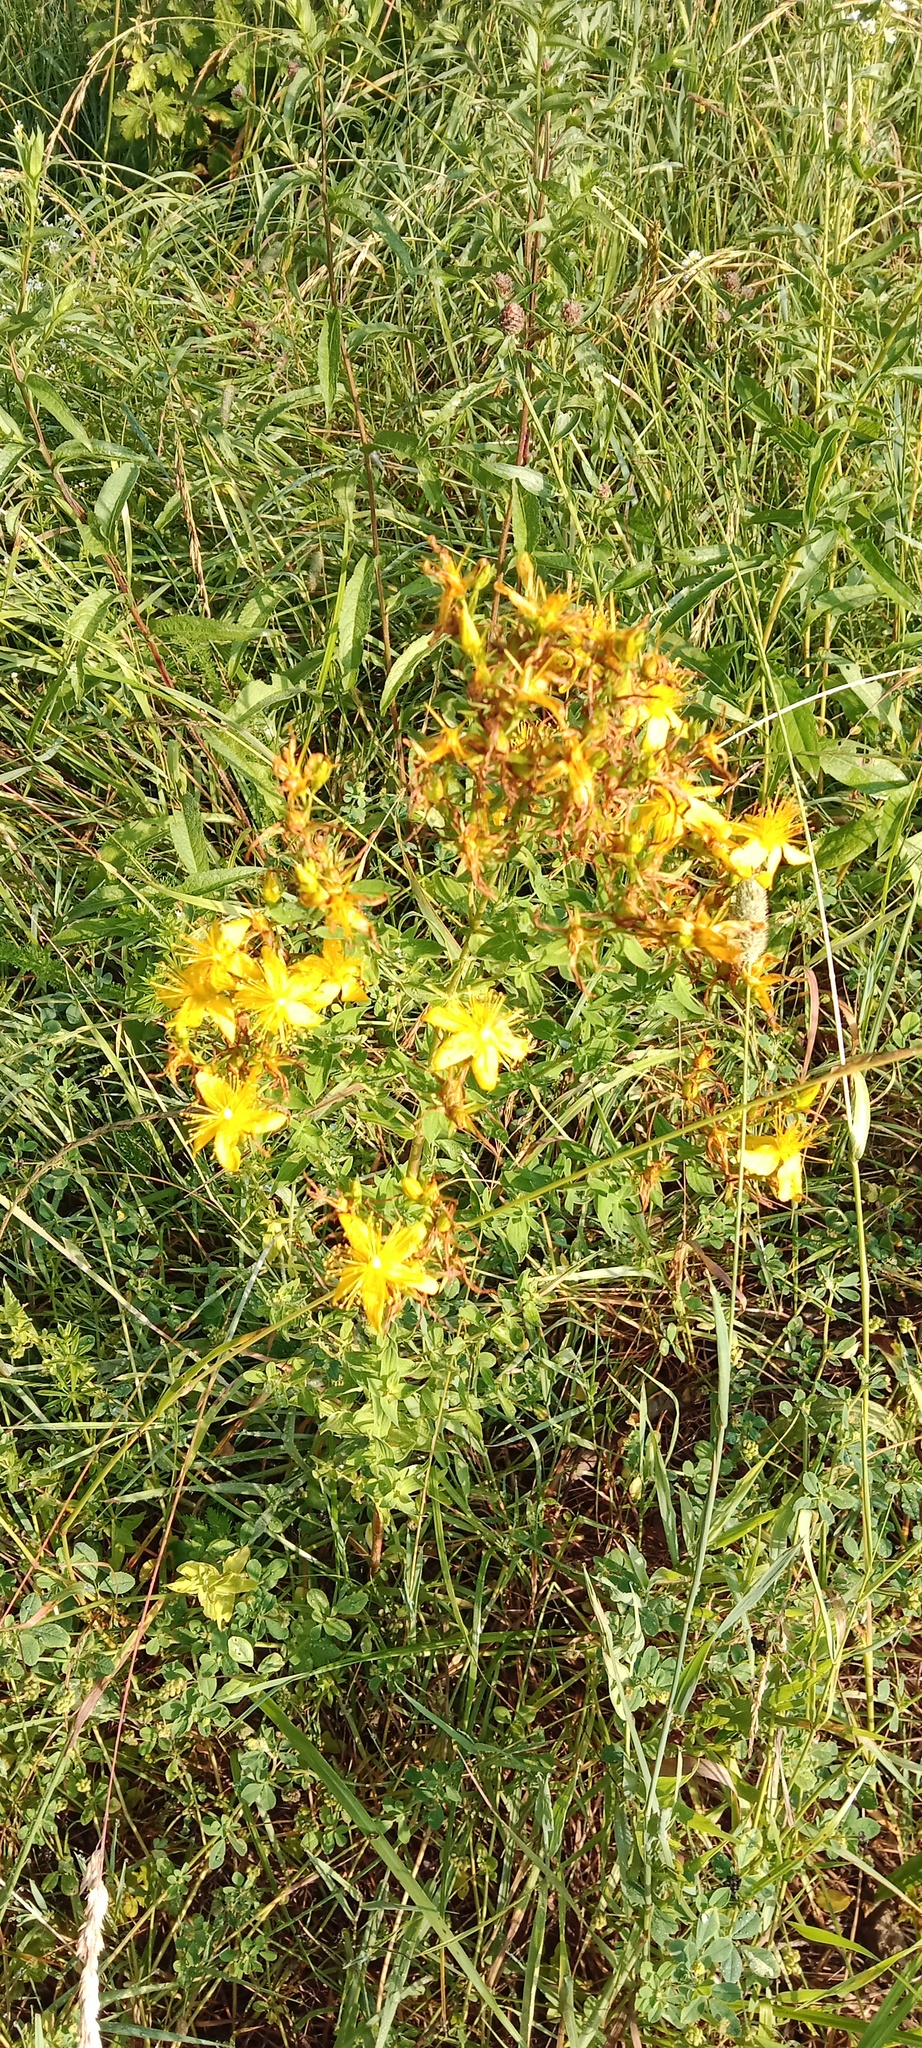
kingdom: Plantae
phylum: Tracheophyta
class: Magnoliopsida
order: Malpighiales
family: Hypericaceae
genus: Hypericum
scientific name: Hypericum perforatum
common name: Common st. johnswort
